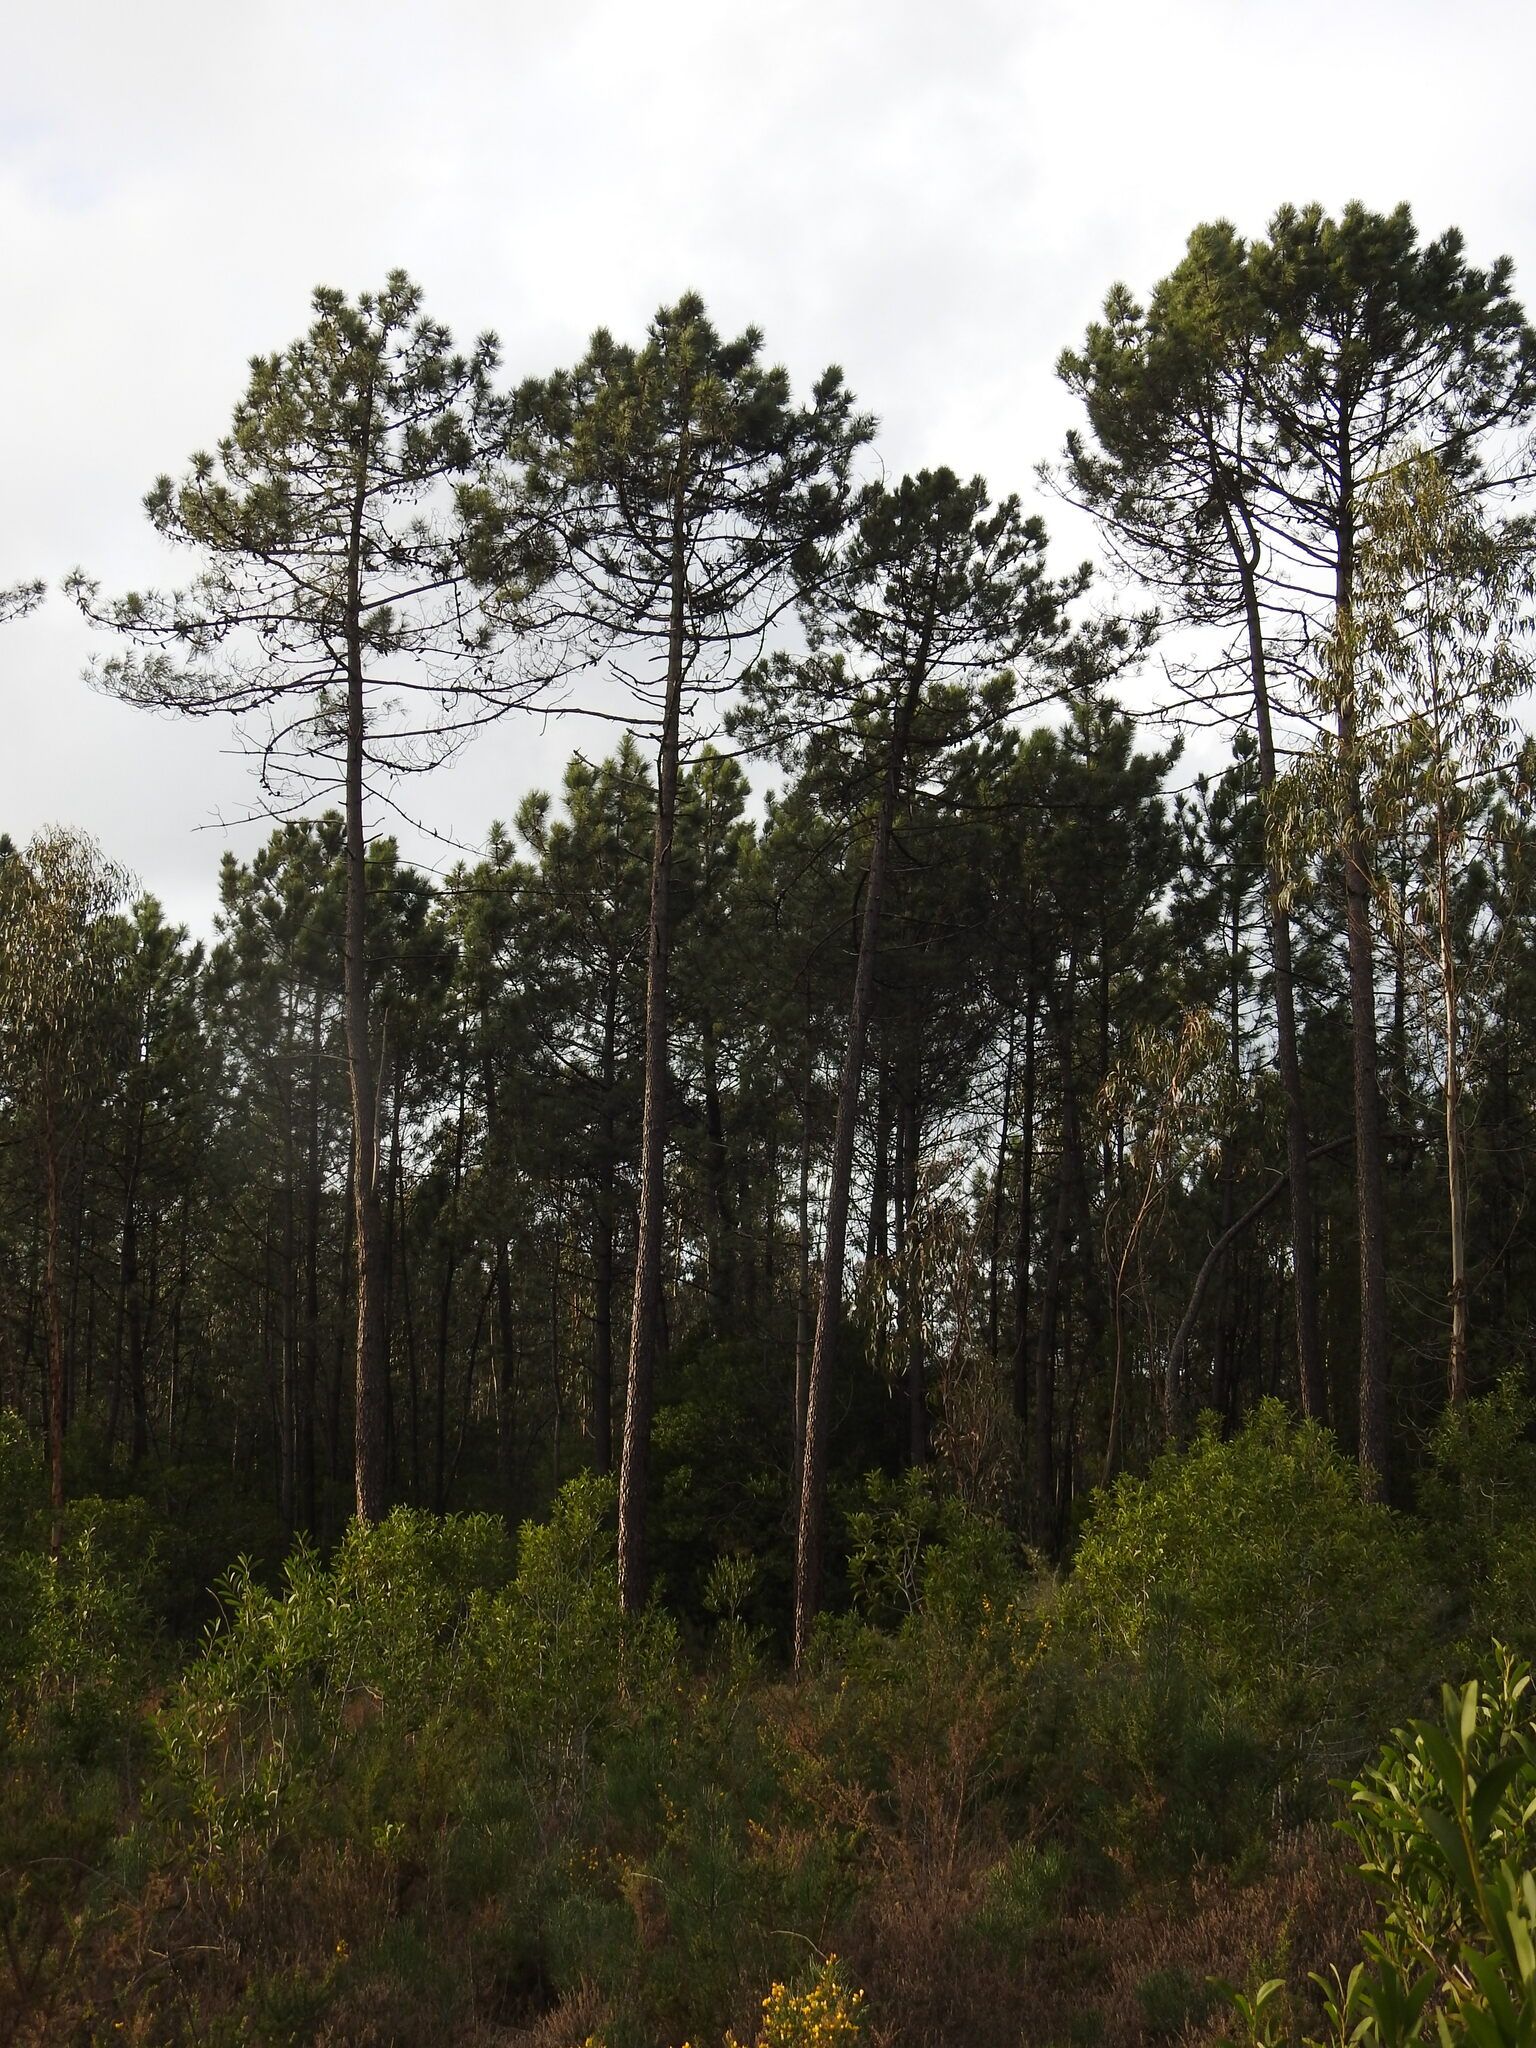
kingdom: Plantae
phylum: Tracheophyta
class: Pinopsida
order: Pinales
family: Pinaceae
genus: Pinus
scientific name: Pinus pinaster
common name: Maritime pine
